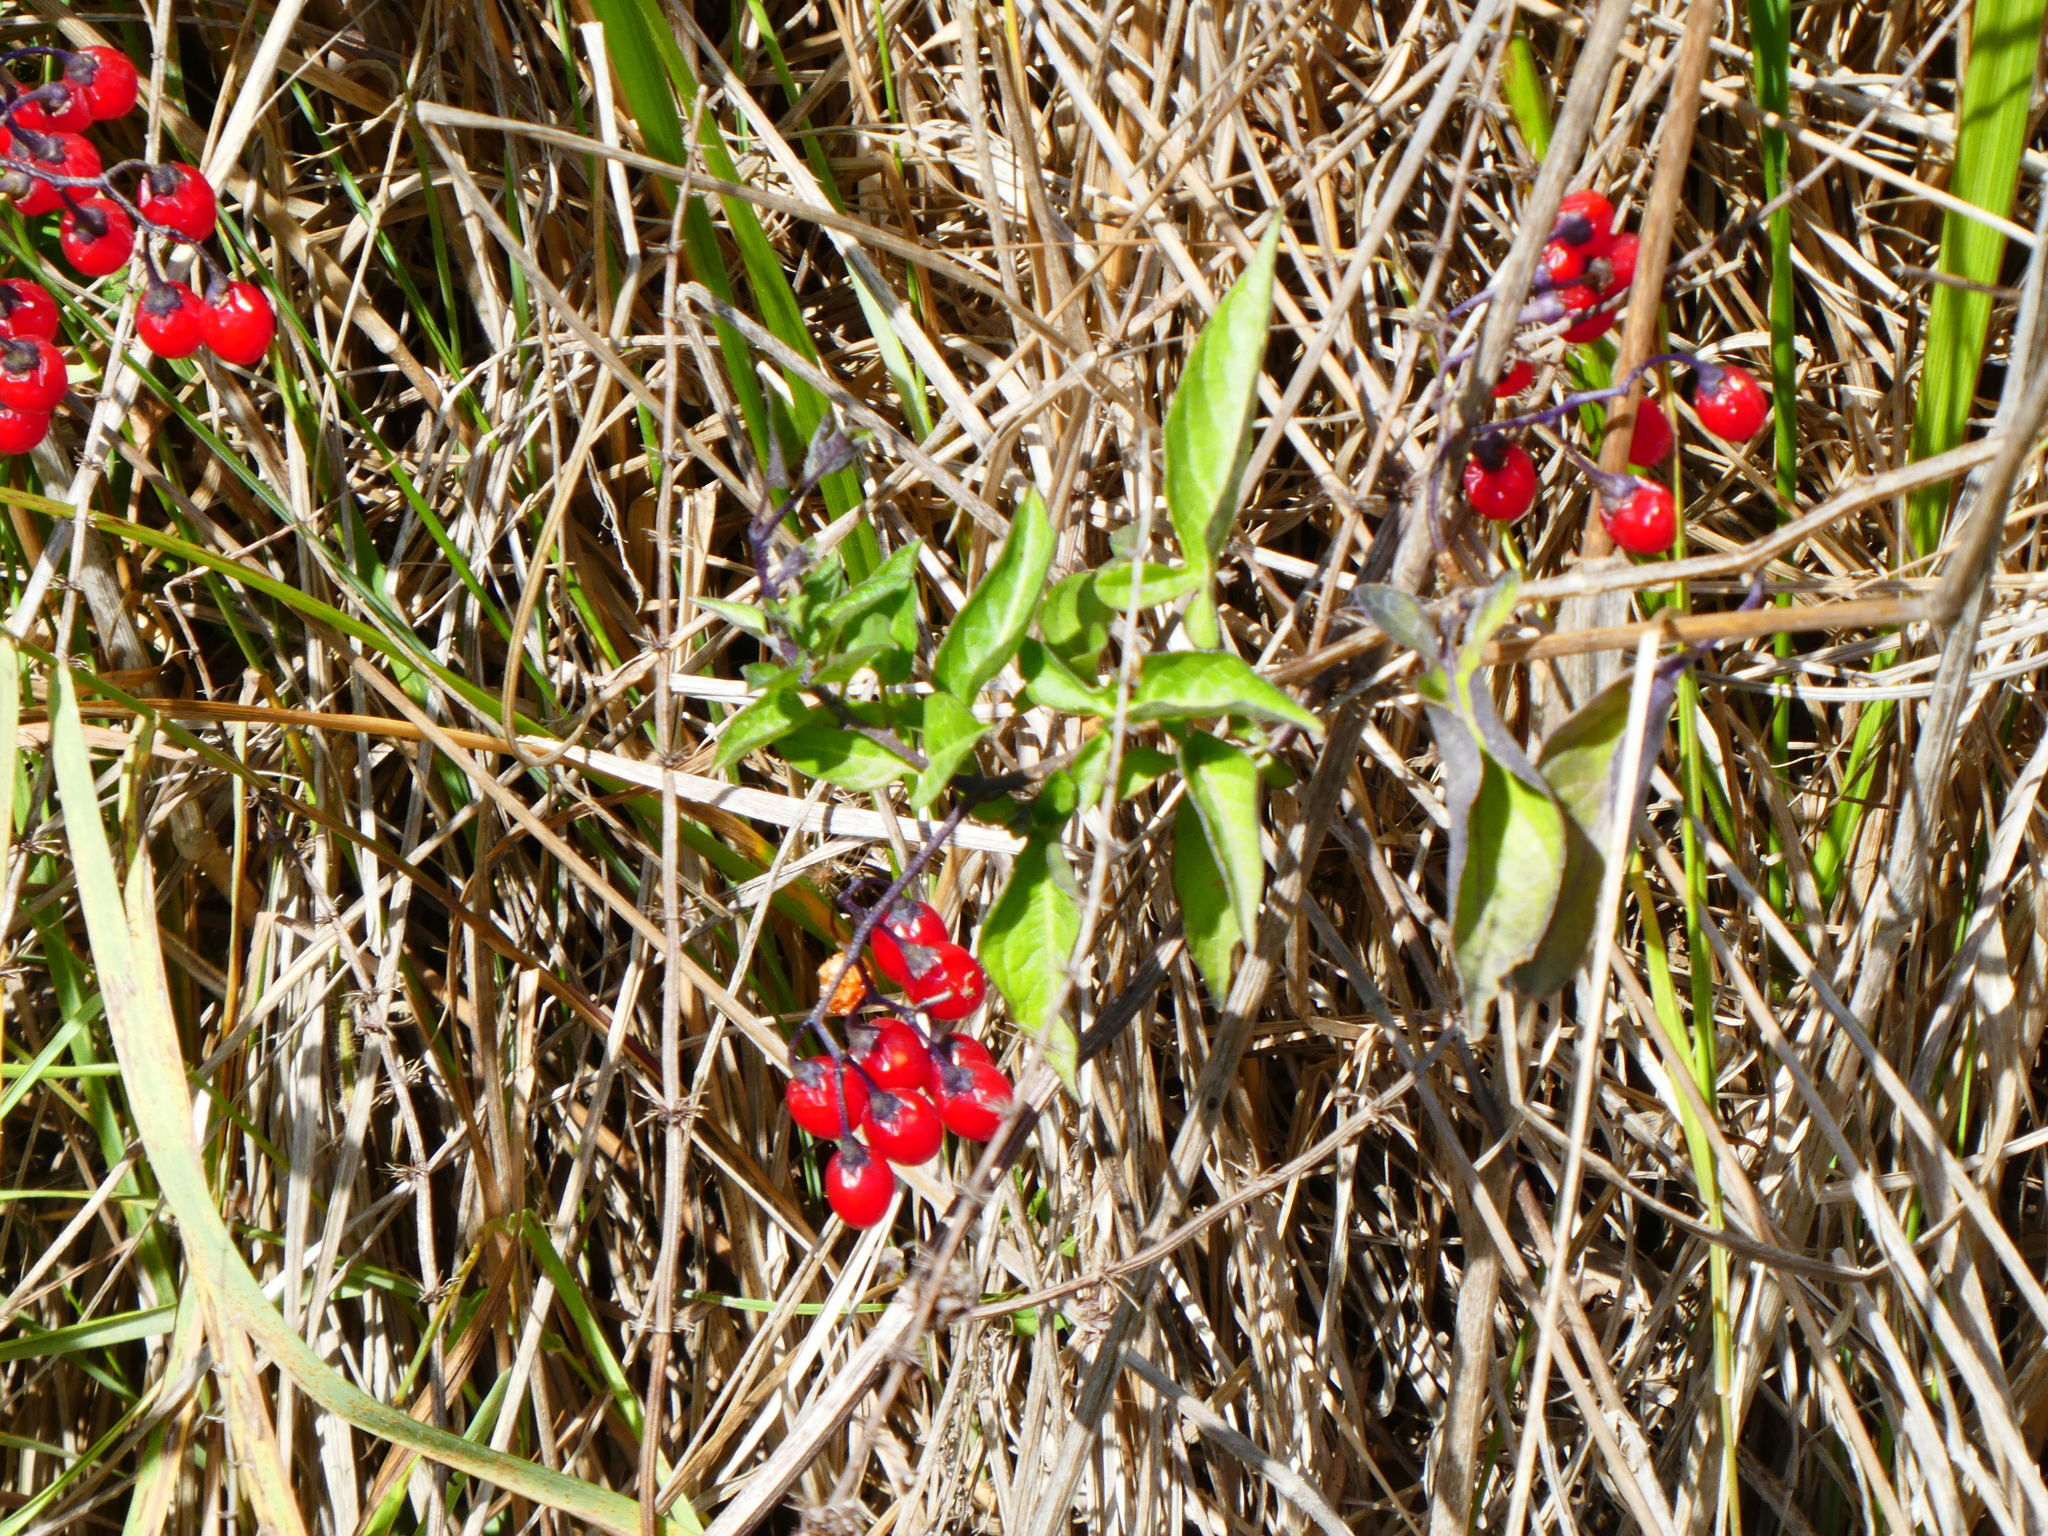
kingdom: Plantae
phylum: Tracheophyta
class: Magnoliopsida
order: Solanales
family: Solanaceae
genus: Solanum
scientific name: Solanum dulcamara
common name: Climbing nightshade
